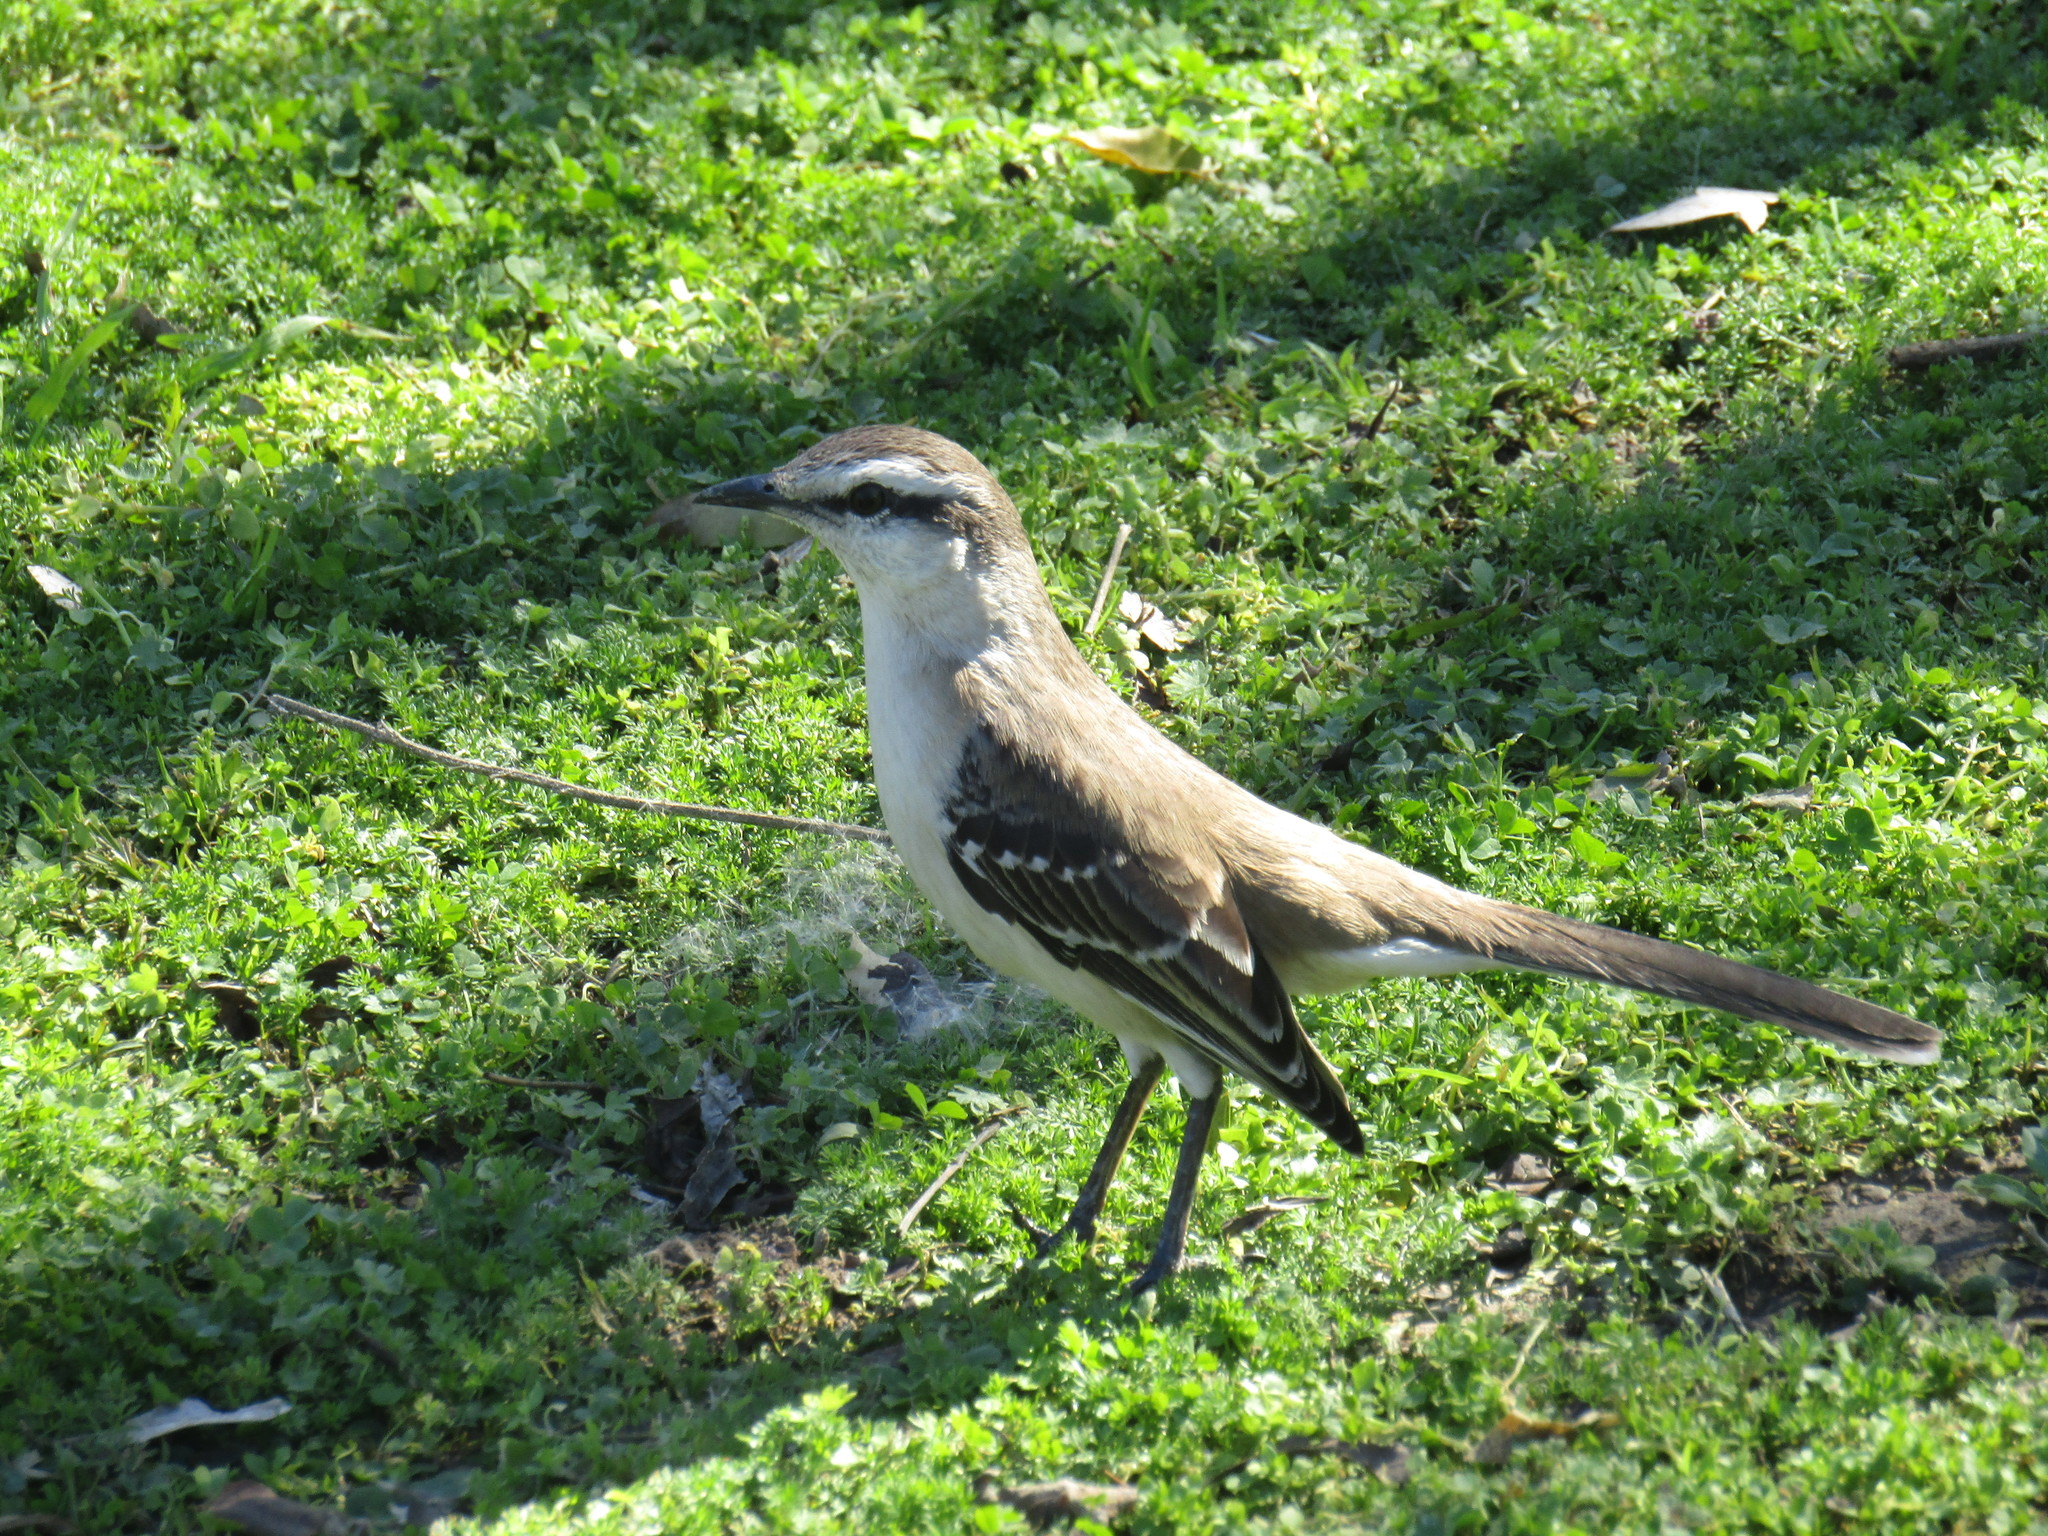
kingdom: Animalia
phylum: Chordata
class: Aves
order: Passeriformes
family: Mimidae
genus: Mimus
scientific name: Mimus saturninus
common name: Chalk-browed mockingbird
